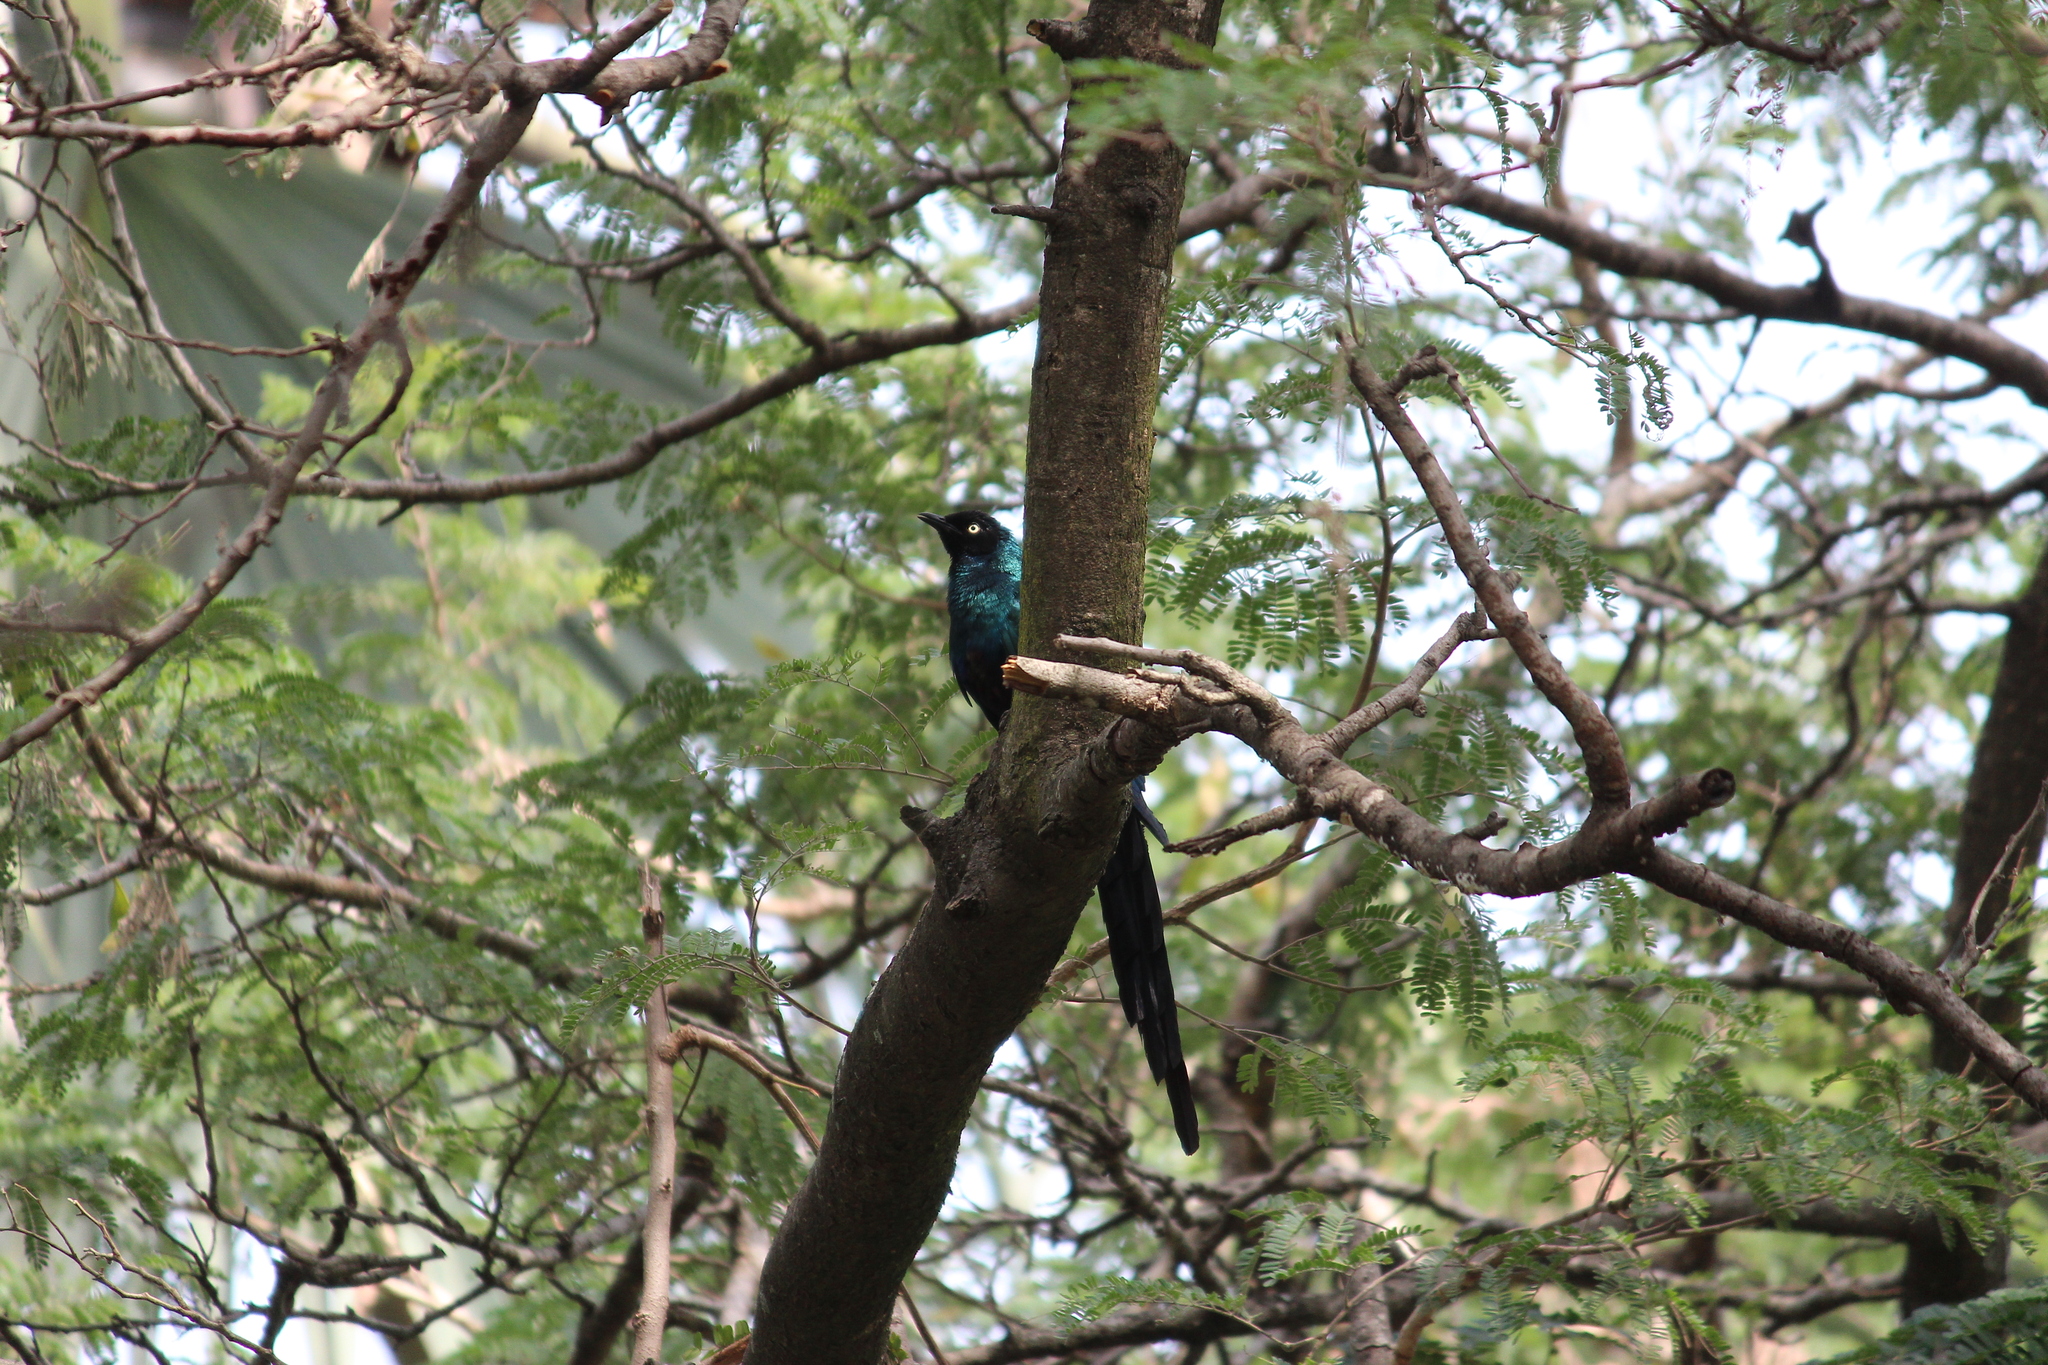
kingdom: Animalia
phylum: Chordata
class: Aves
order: Passeriformes
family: Sturnidae
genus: Lamprotornis
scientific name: Lamprotornis caudatus
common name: Long-tailed glossy starling
